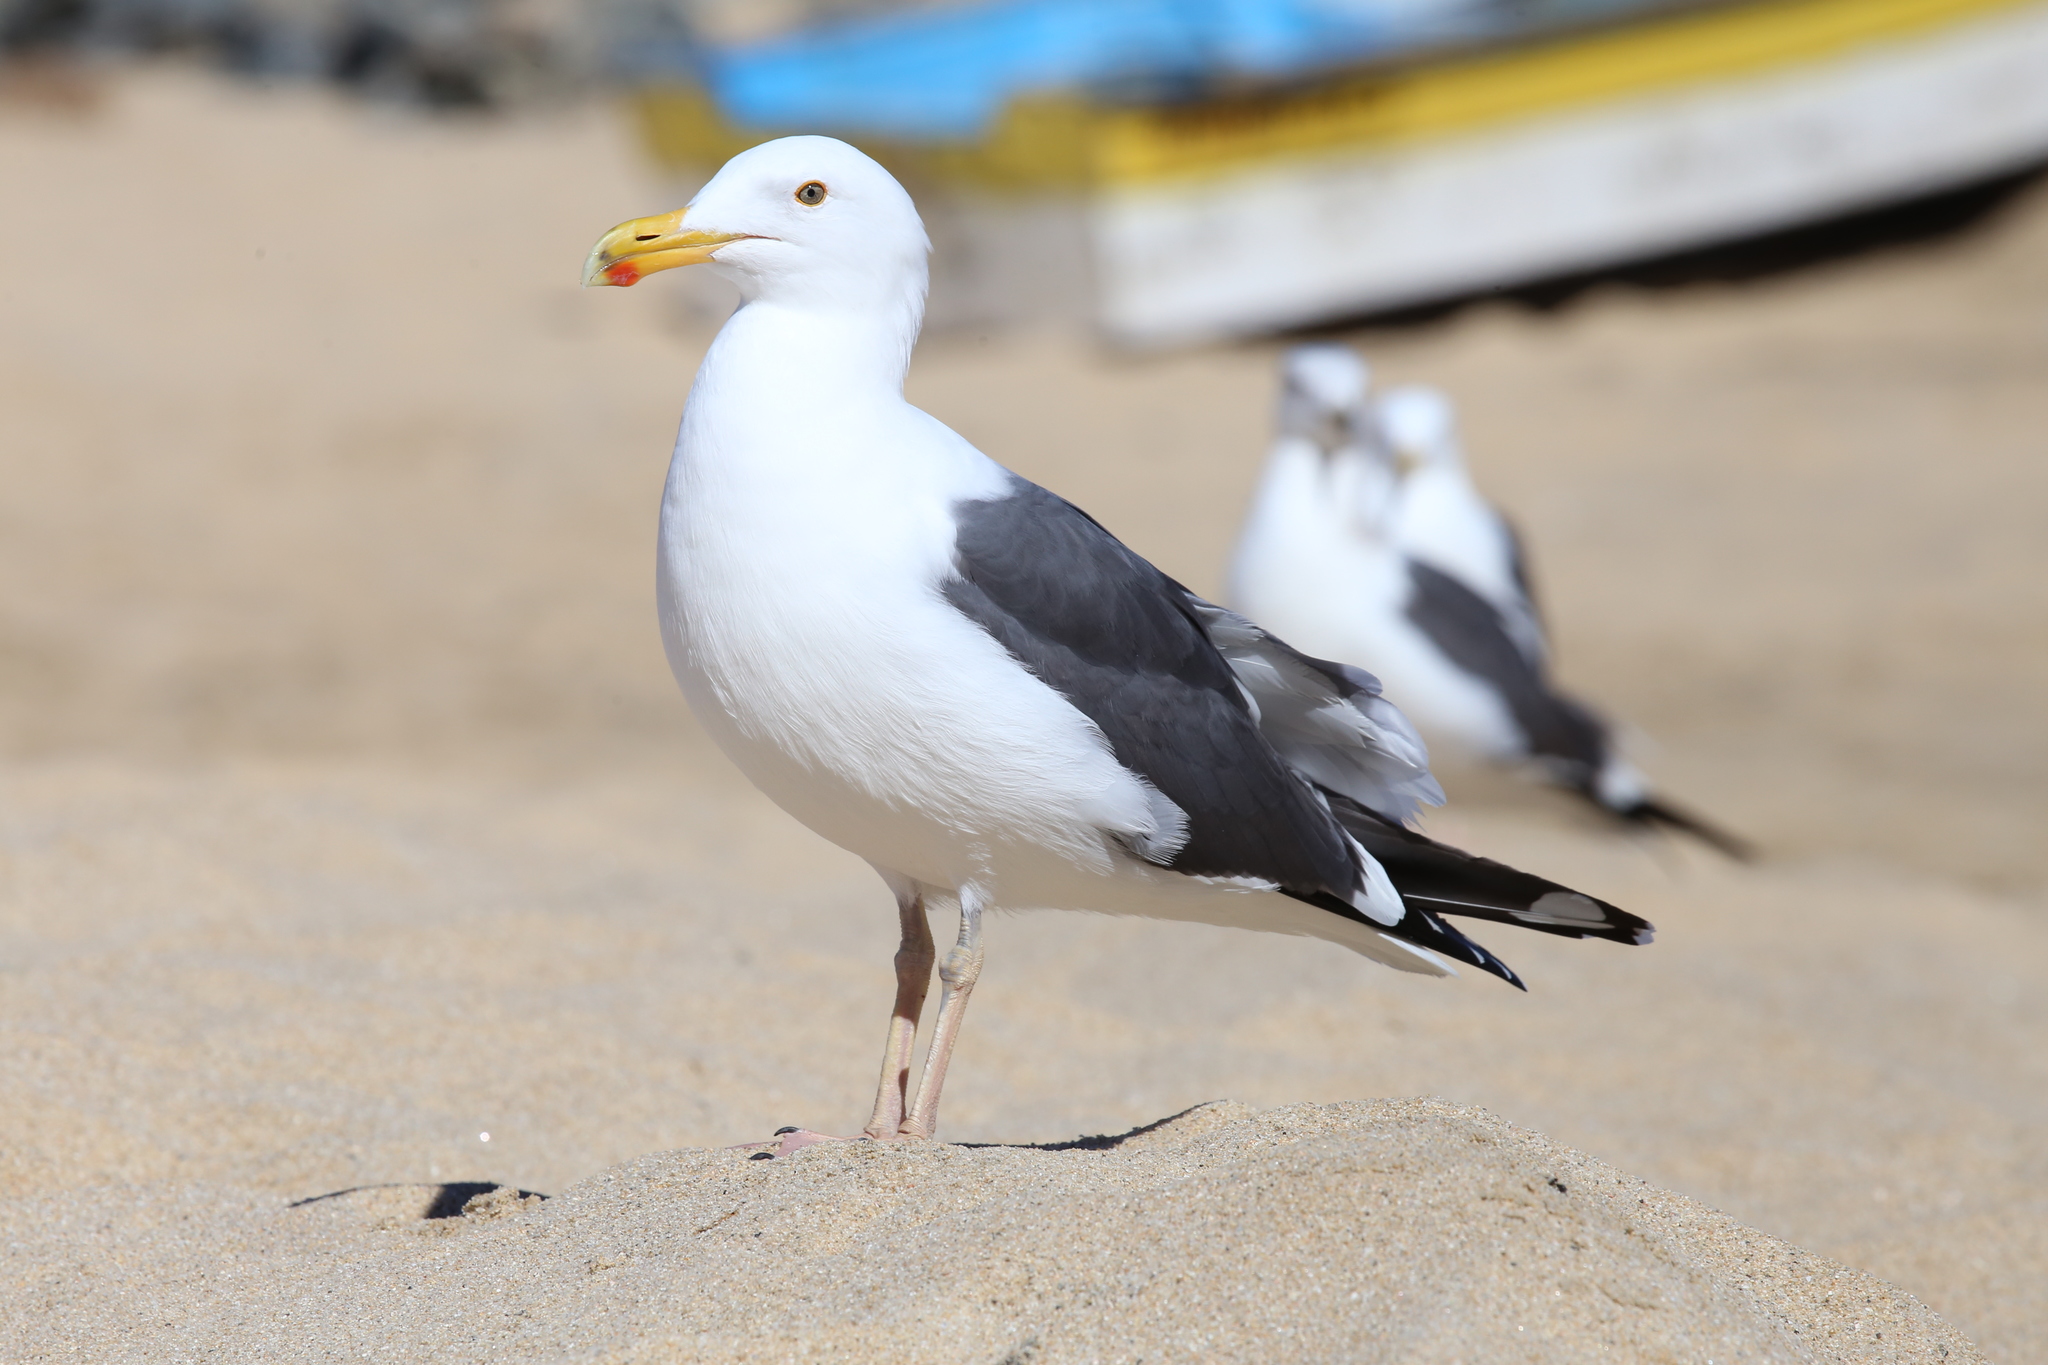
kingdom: Animalia
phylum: Chordata
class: Aves
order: Charadriiformes
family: Laridae
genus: Larus
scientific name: Larus occidentalis
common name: Western gull
